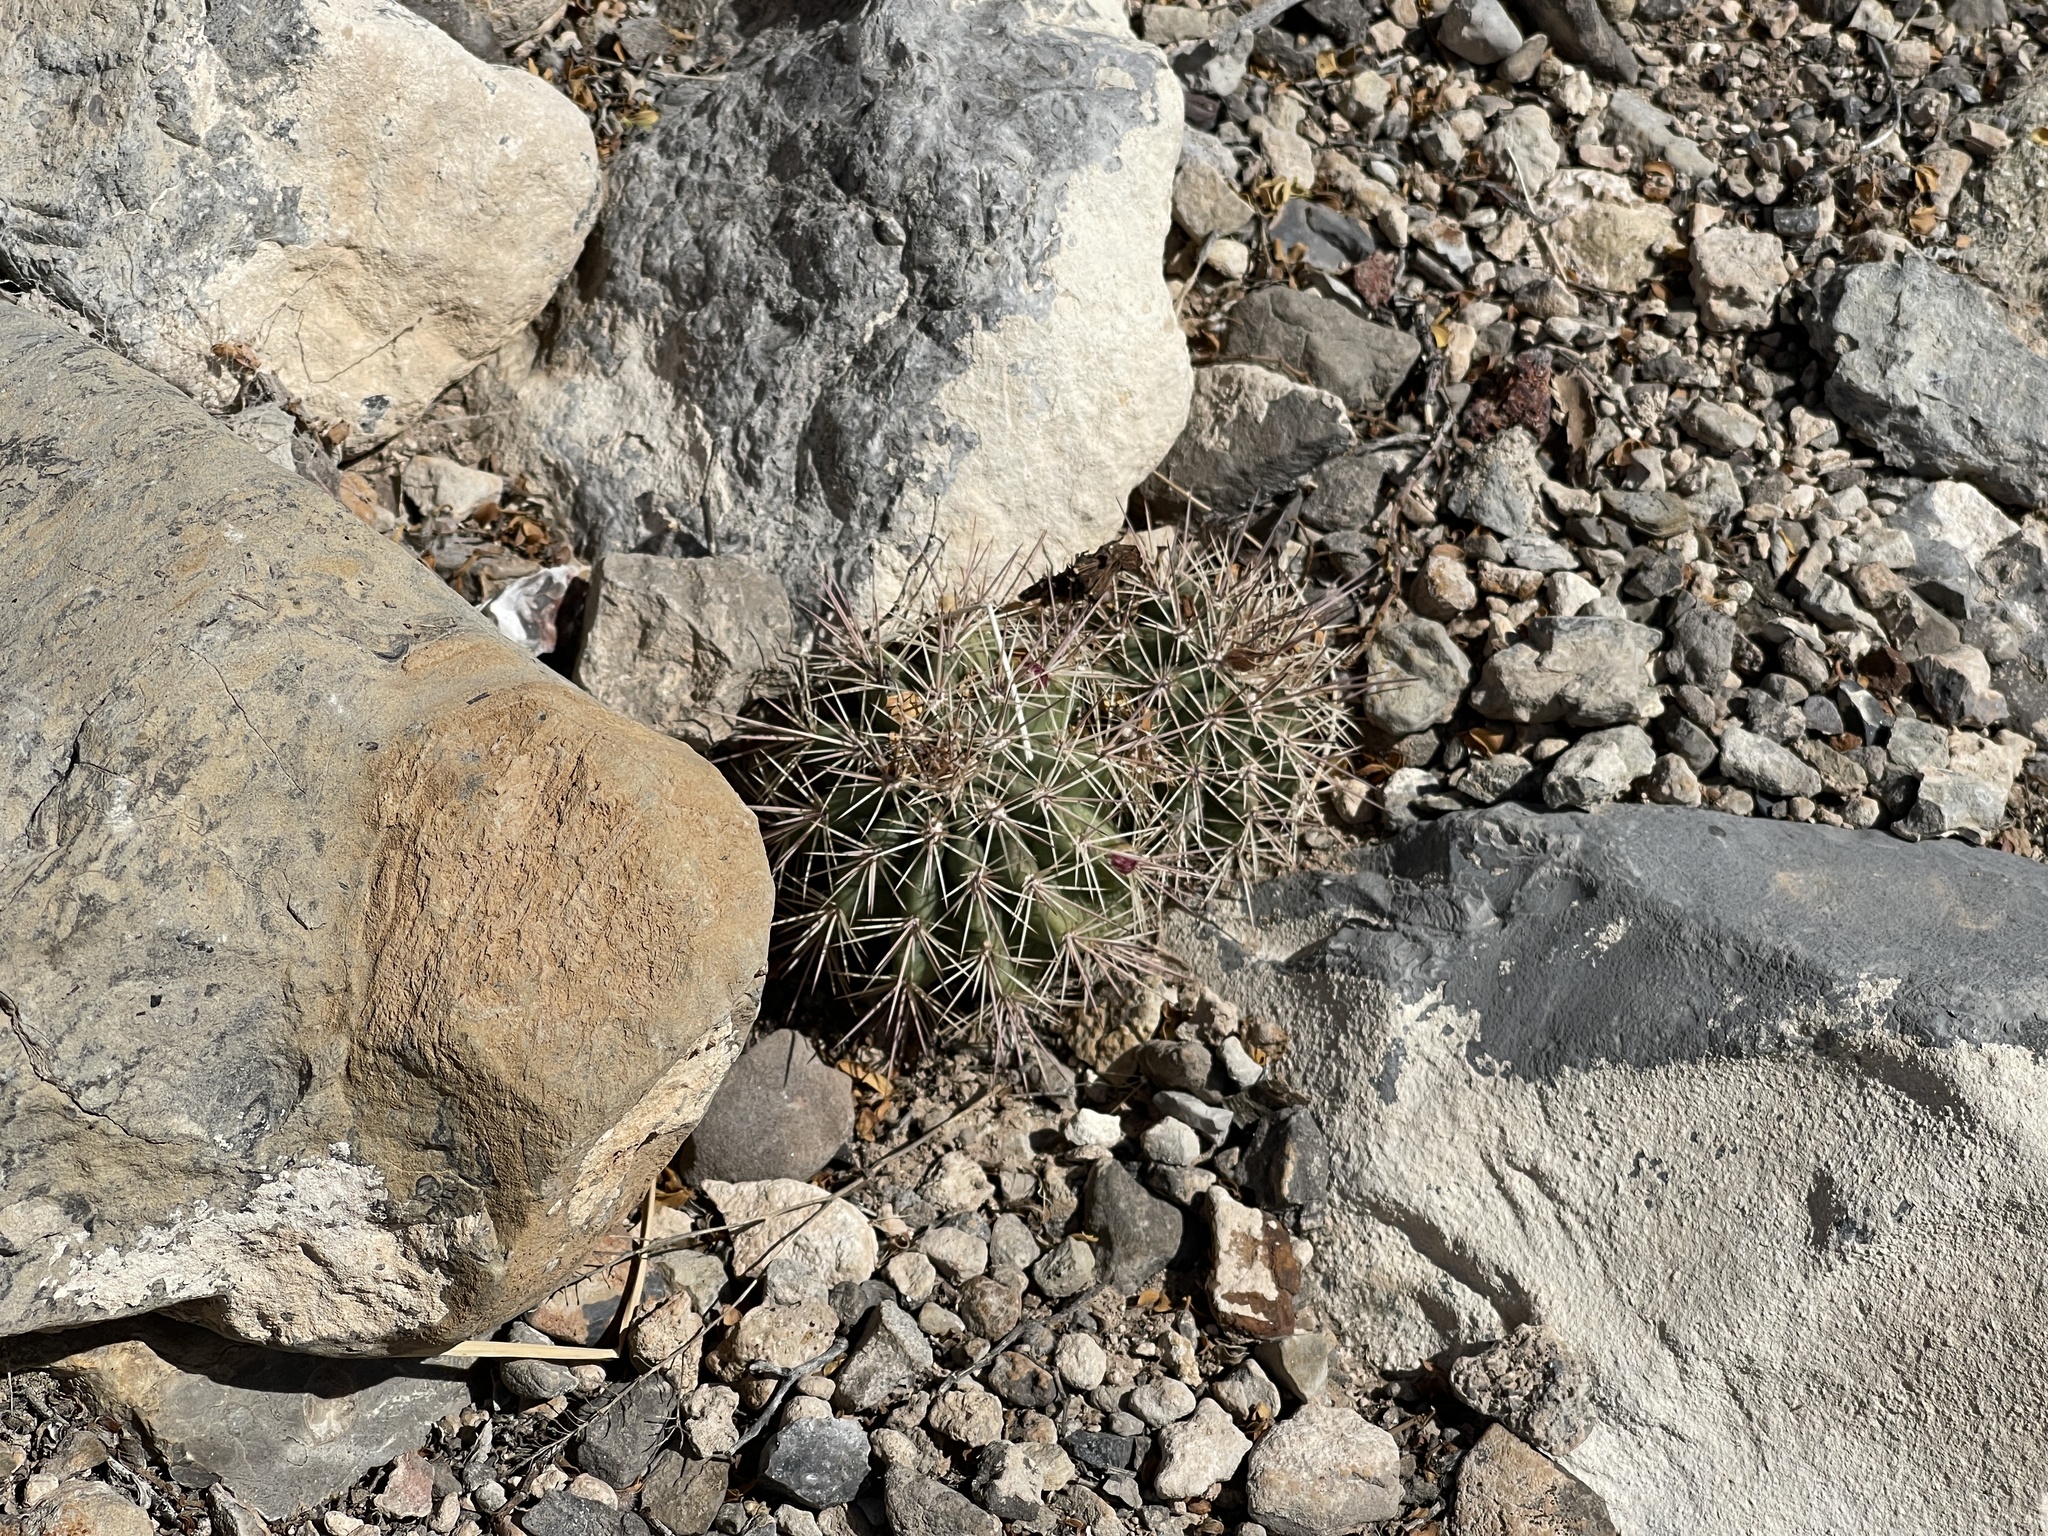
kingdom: Plantae
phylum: Tracheophyta
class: Magnoliopsida
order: Caryophyllales
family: Cactaceae
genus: Echinocereus
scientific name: Echinocereus coccineus
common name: Scarlet hedgehog cactus
